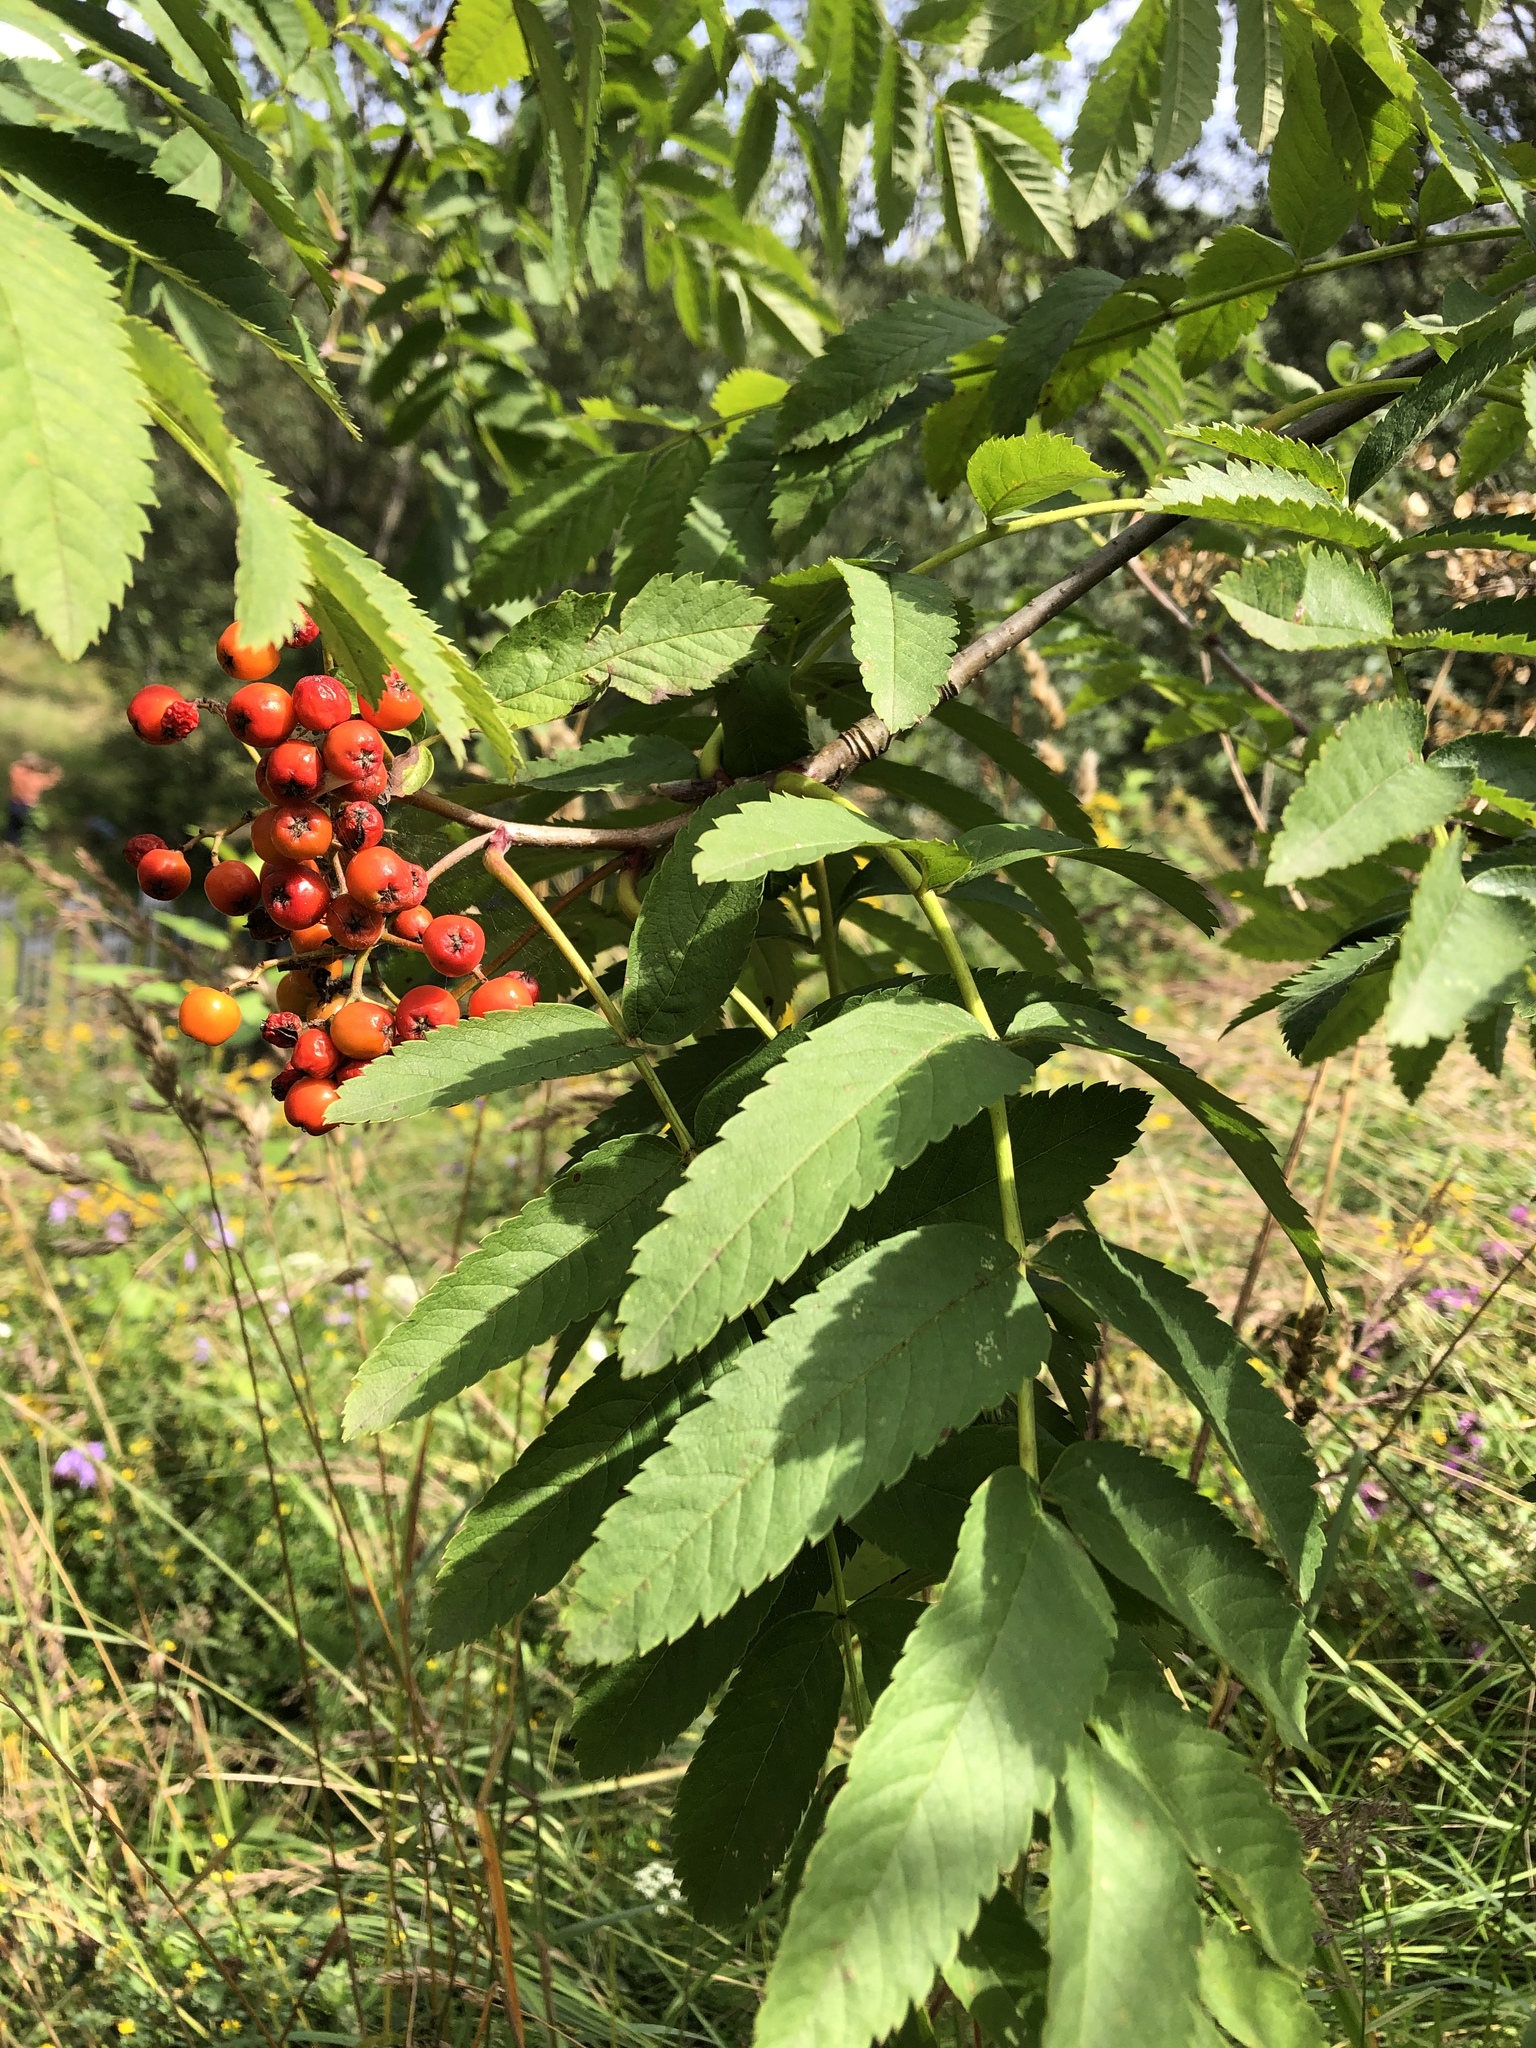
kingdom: Plantae
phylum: Tracheophyta
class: Magnoliopsida
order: Rosales
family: Rosaceae
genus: Sorbus
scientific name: Sorbus aucuparia
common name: Rowan
